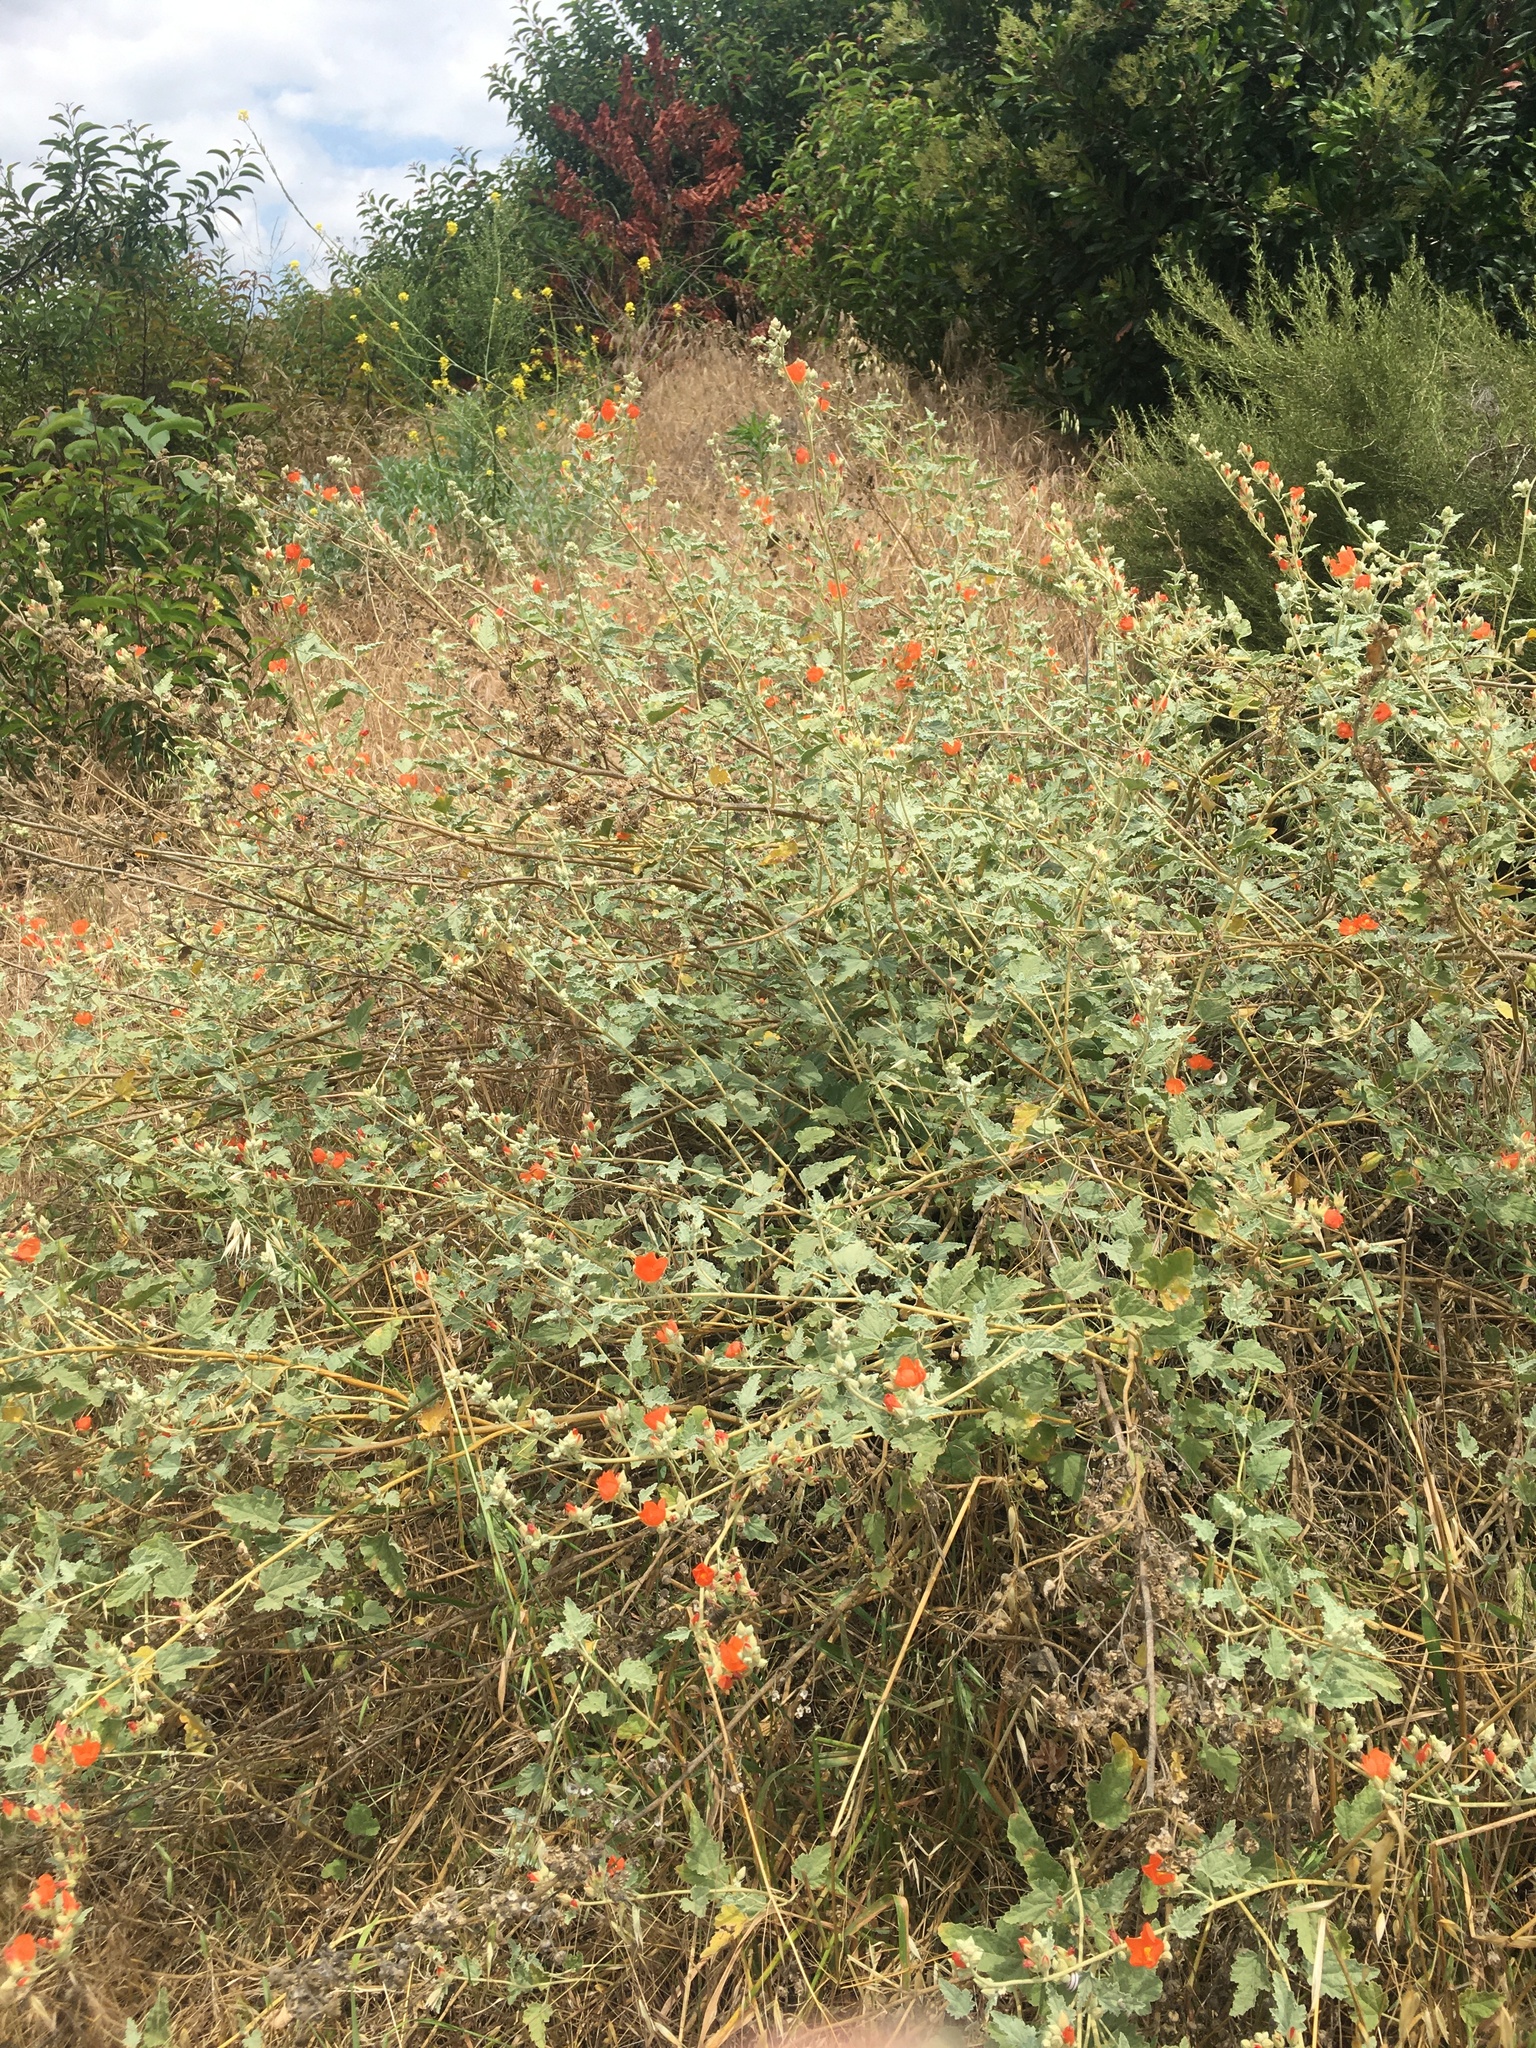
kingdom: Plantae
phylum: Tracheophyta
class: Magnoliopsida
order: Malvales
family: Malvaceae
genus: Sphaeralcea
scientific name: Sphaeralcea ambigua
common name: Apricot globe-mallow
